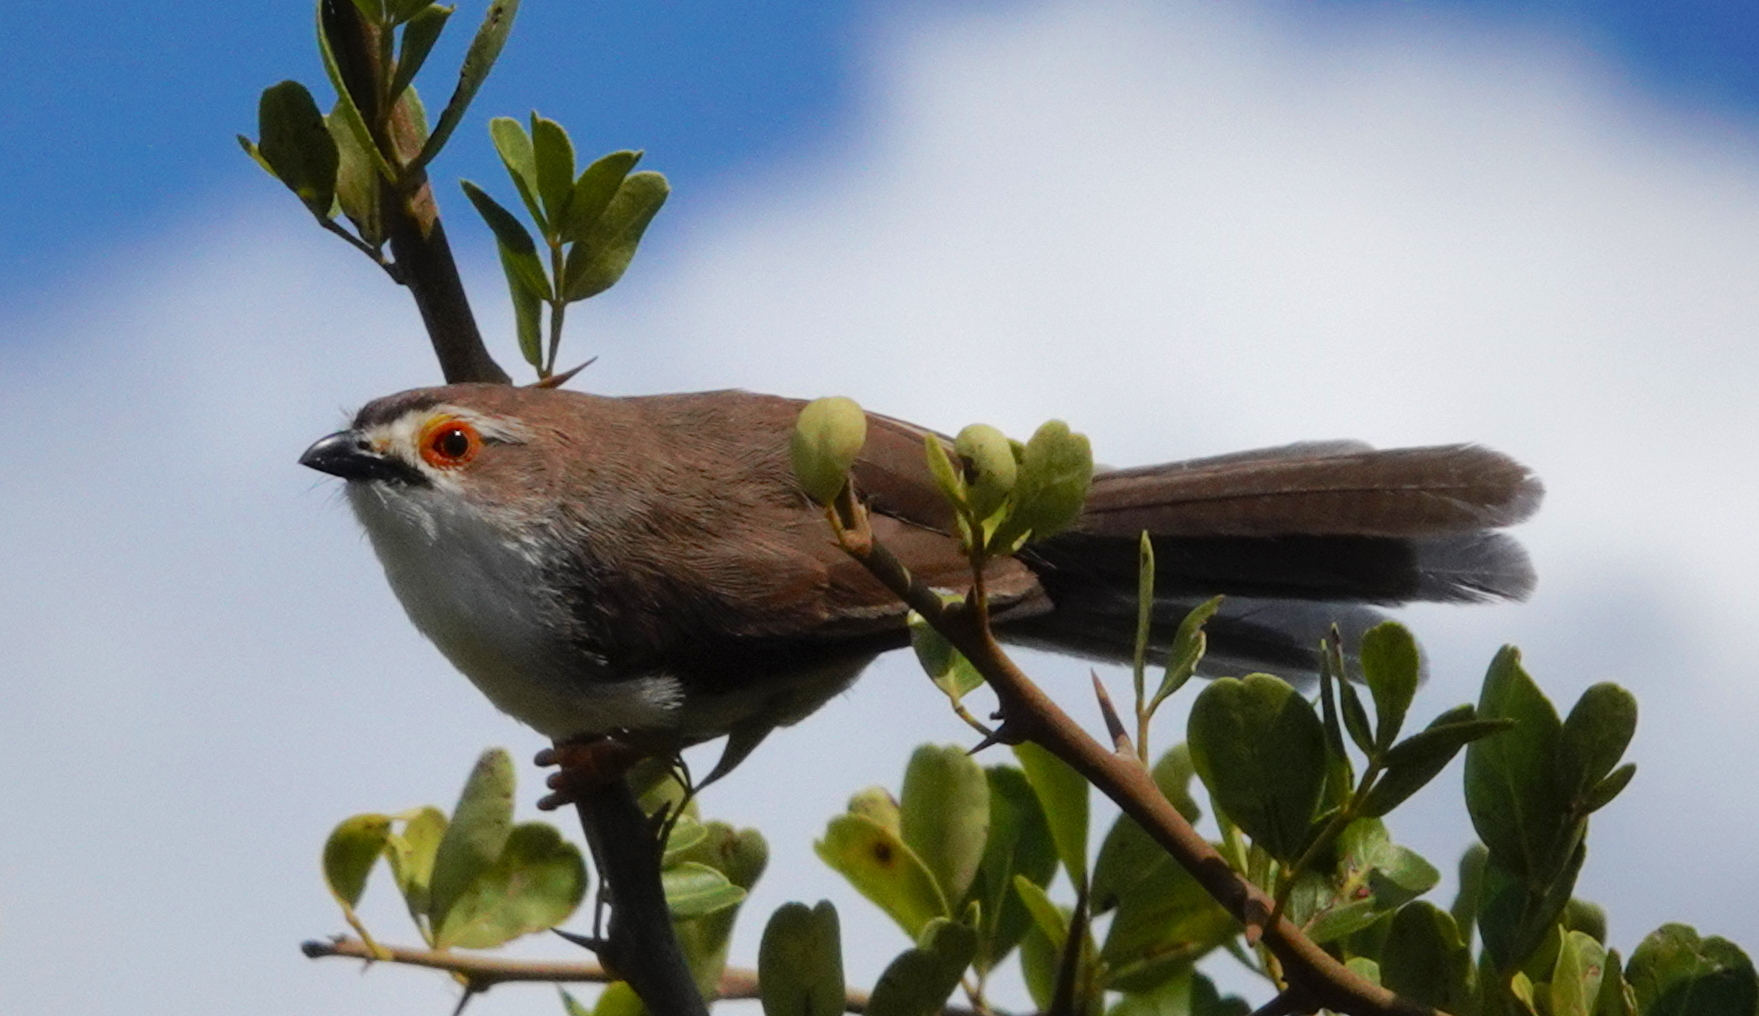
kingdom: Animalia
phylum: Chordata
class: Aves
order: Passeriformes
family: Sylviidae
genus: Chrysomma
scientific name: Chrysomma sinense
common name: Yellow-eyed babbler
